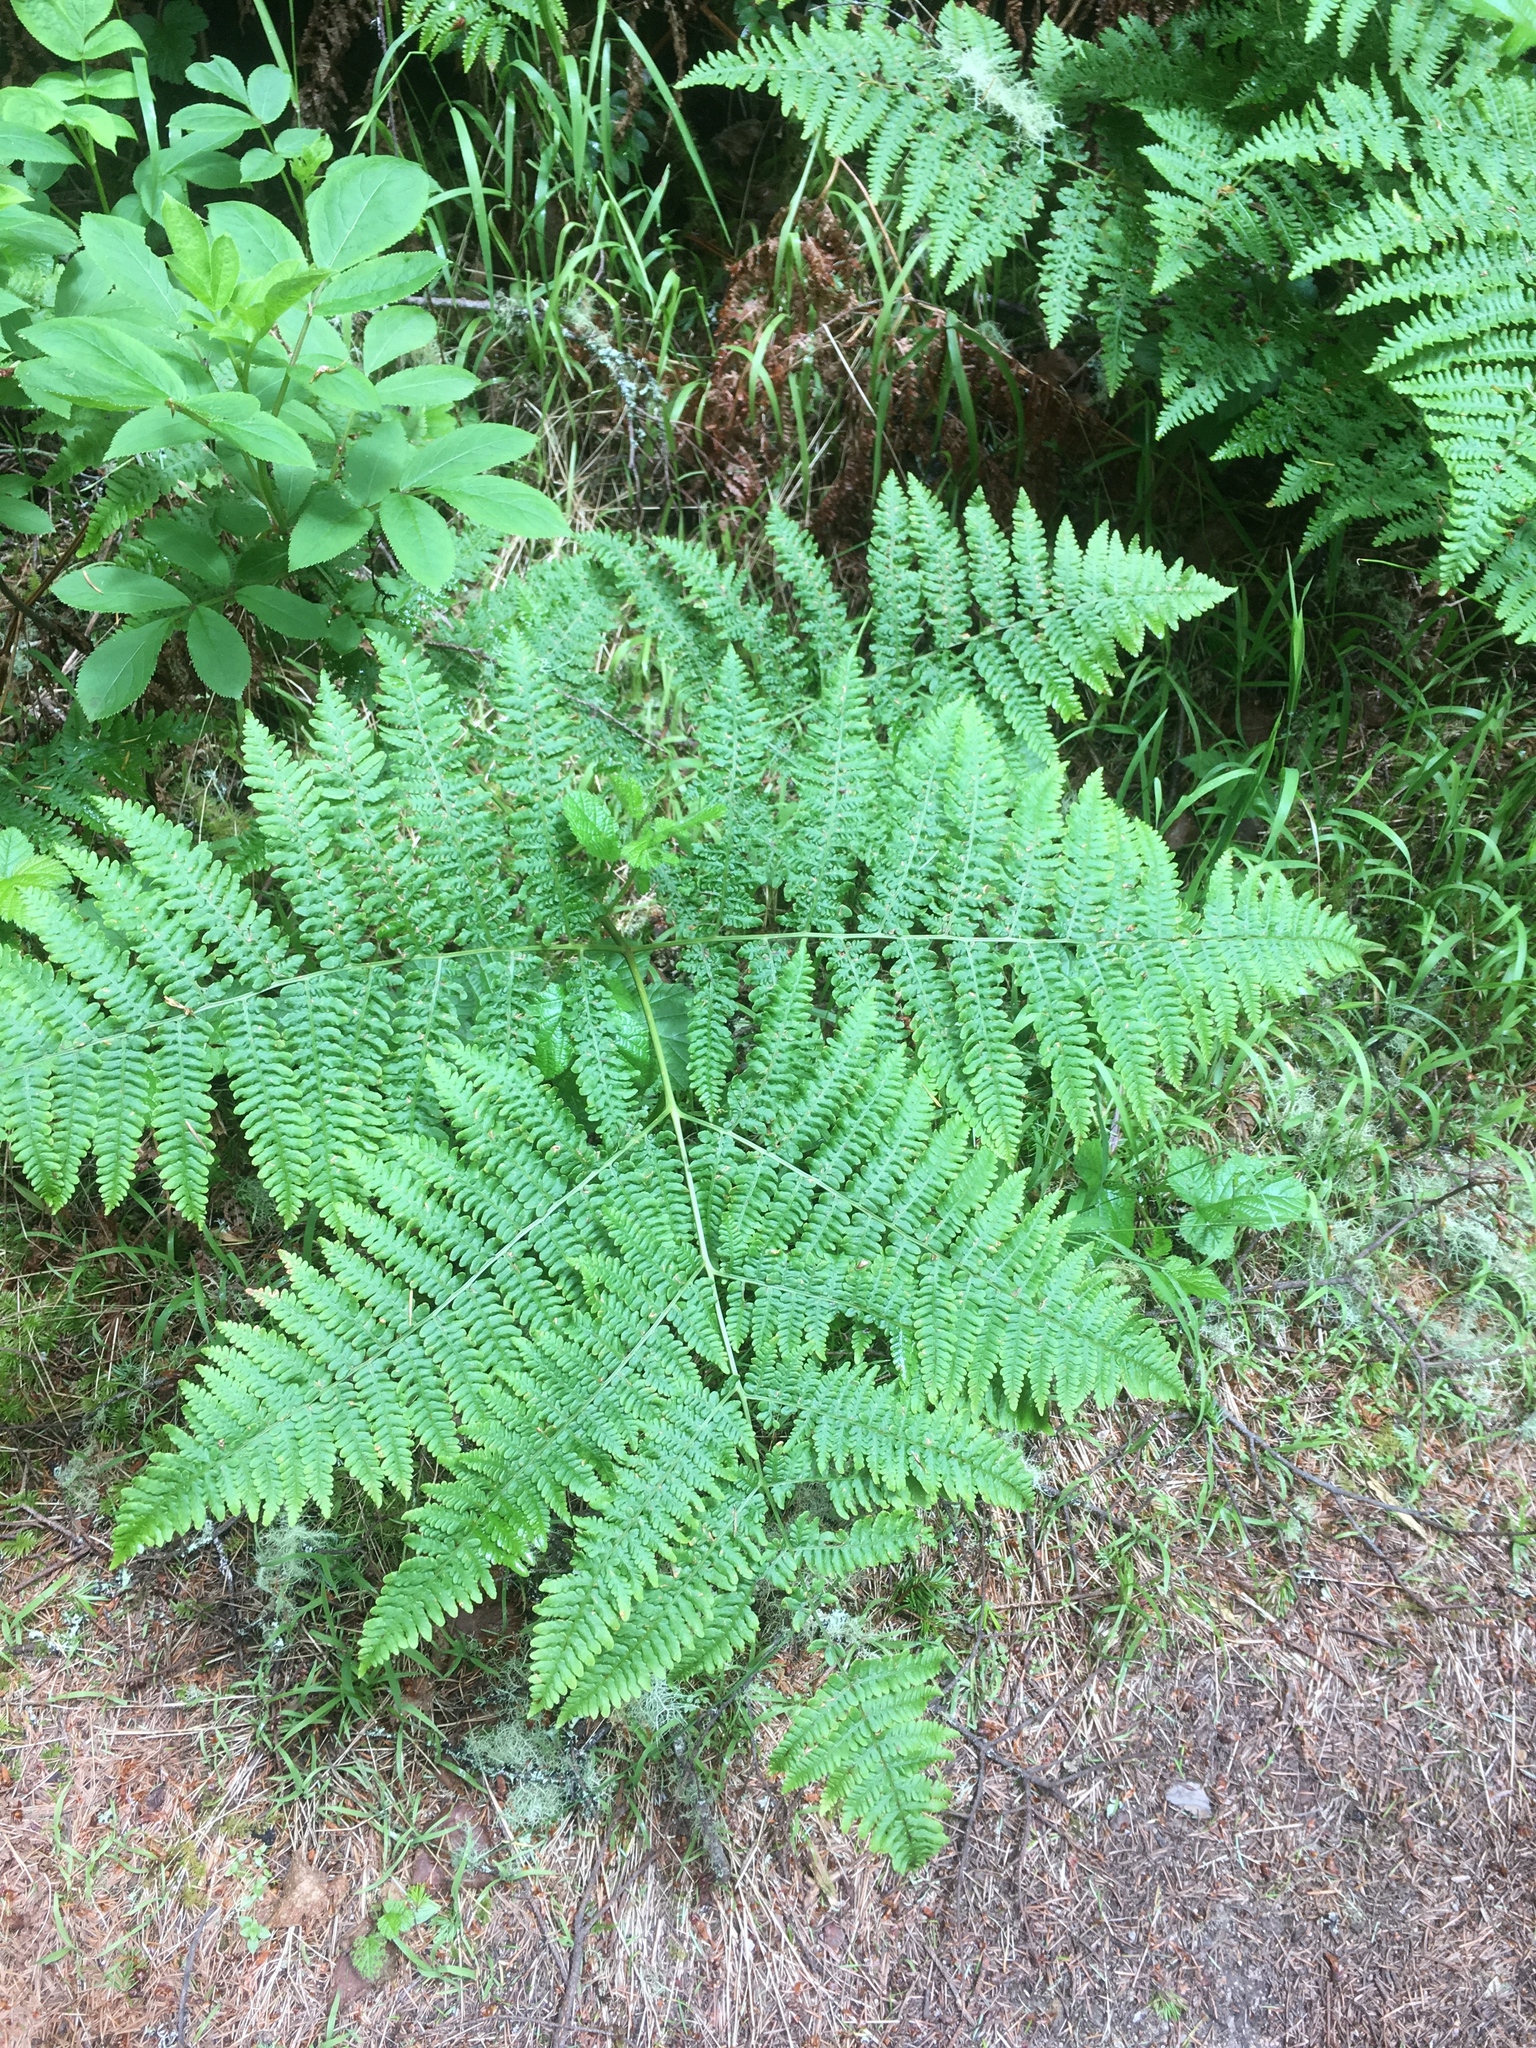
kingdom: Plantae
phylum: Tracheophyta
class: Polypodiopsida
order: Polypodiales
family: Dennstaedtiaceae
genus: Pteridium
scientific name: Pteridium aquilinum
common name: Bracken
